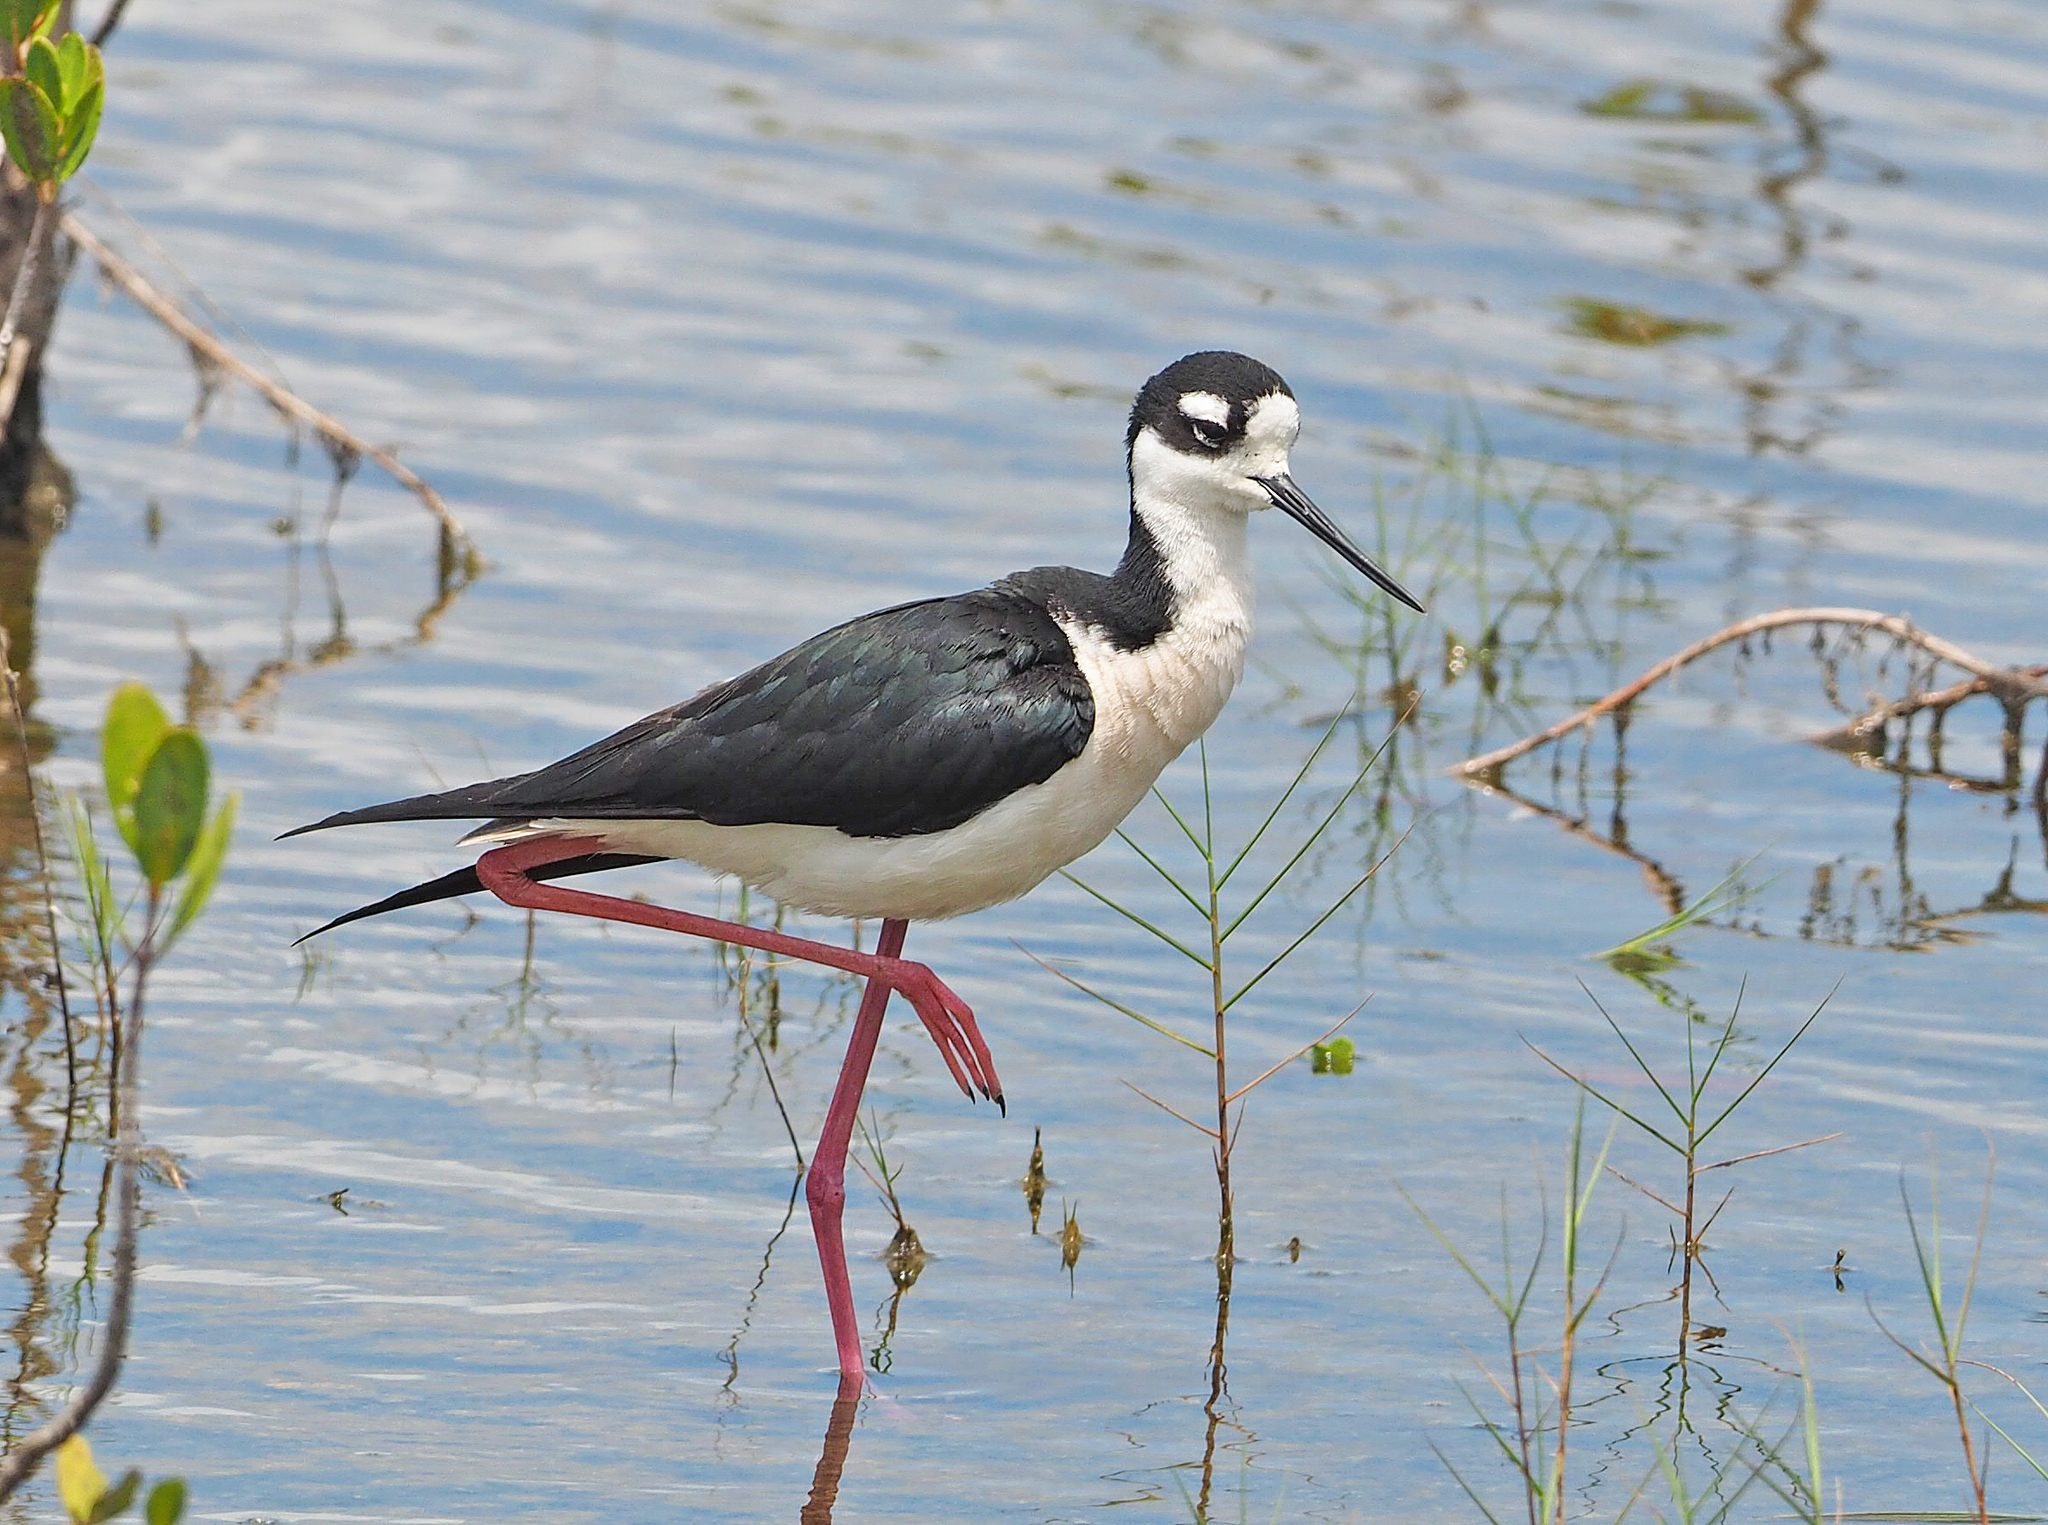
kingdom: Animalia
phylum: Chordata
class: Aves
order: Charadriiformes
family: Recurvirostridae
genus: Himantopus
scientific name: Himantopus mexicanus
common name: Black-necked stilt
